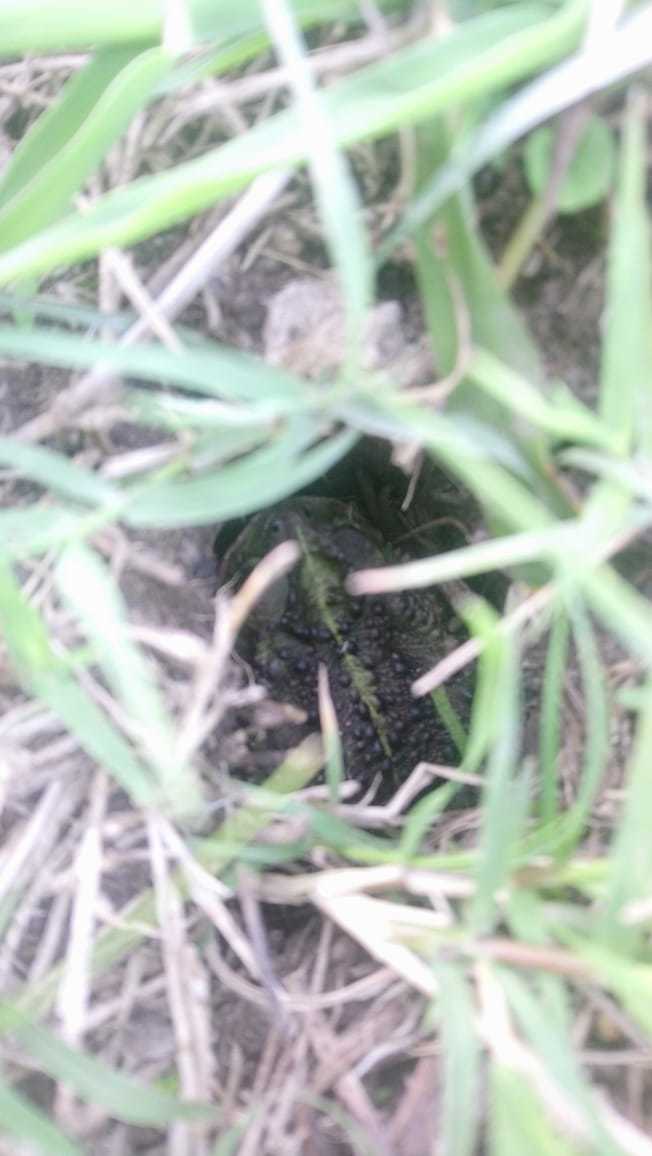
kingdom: Animalia
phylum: Chordata
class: Amphibia
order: Anura
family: Bufonidae
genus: Rhinella
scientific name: Rhinella dorbignyi
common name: D´orbigny’s toad
